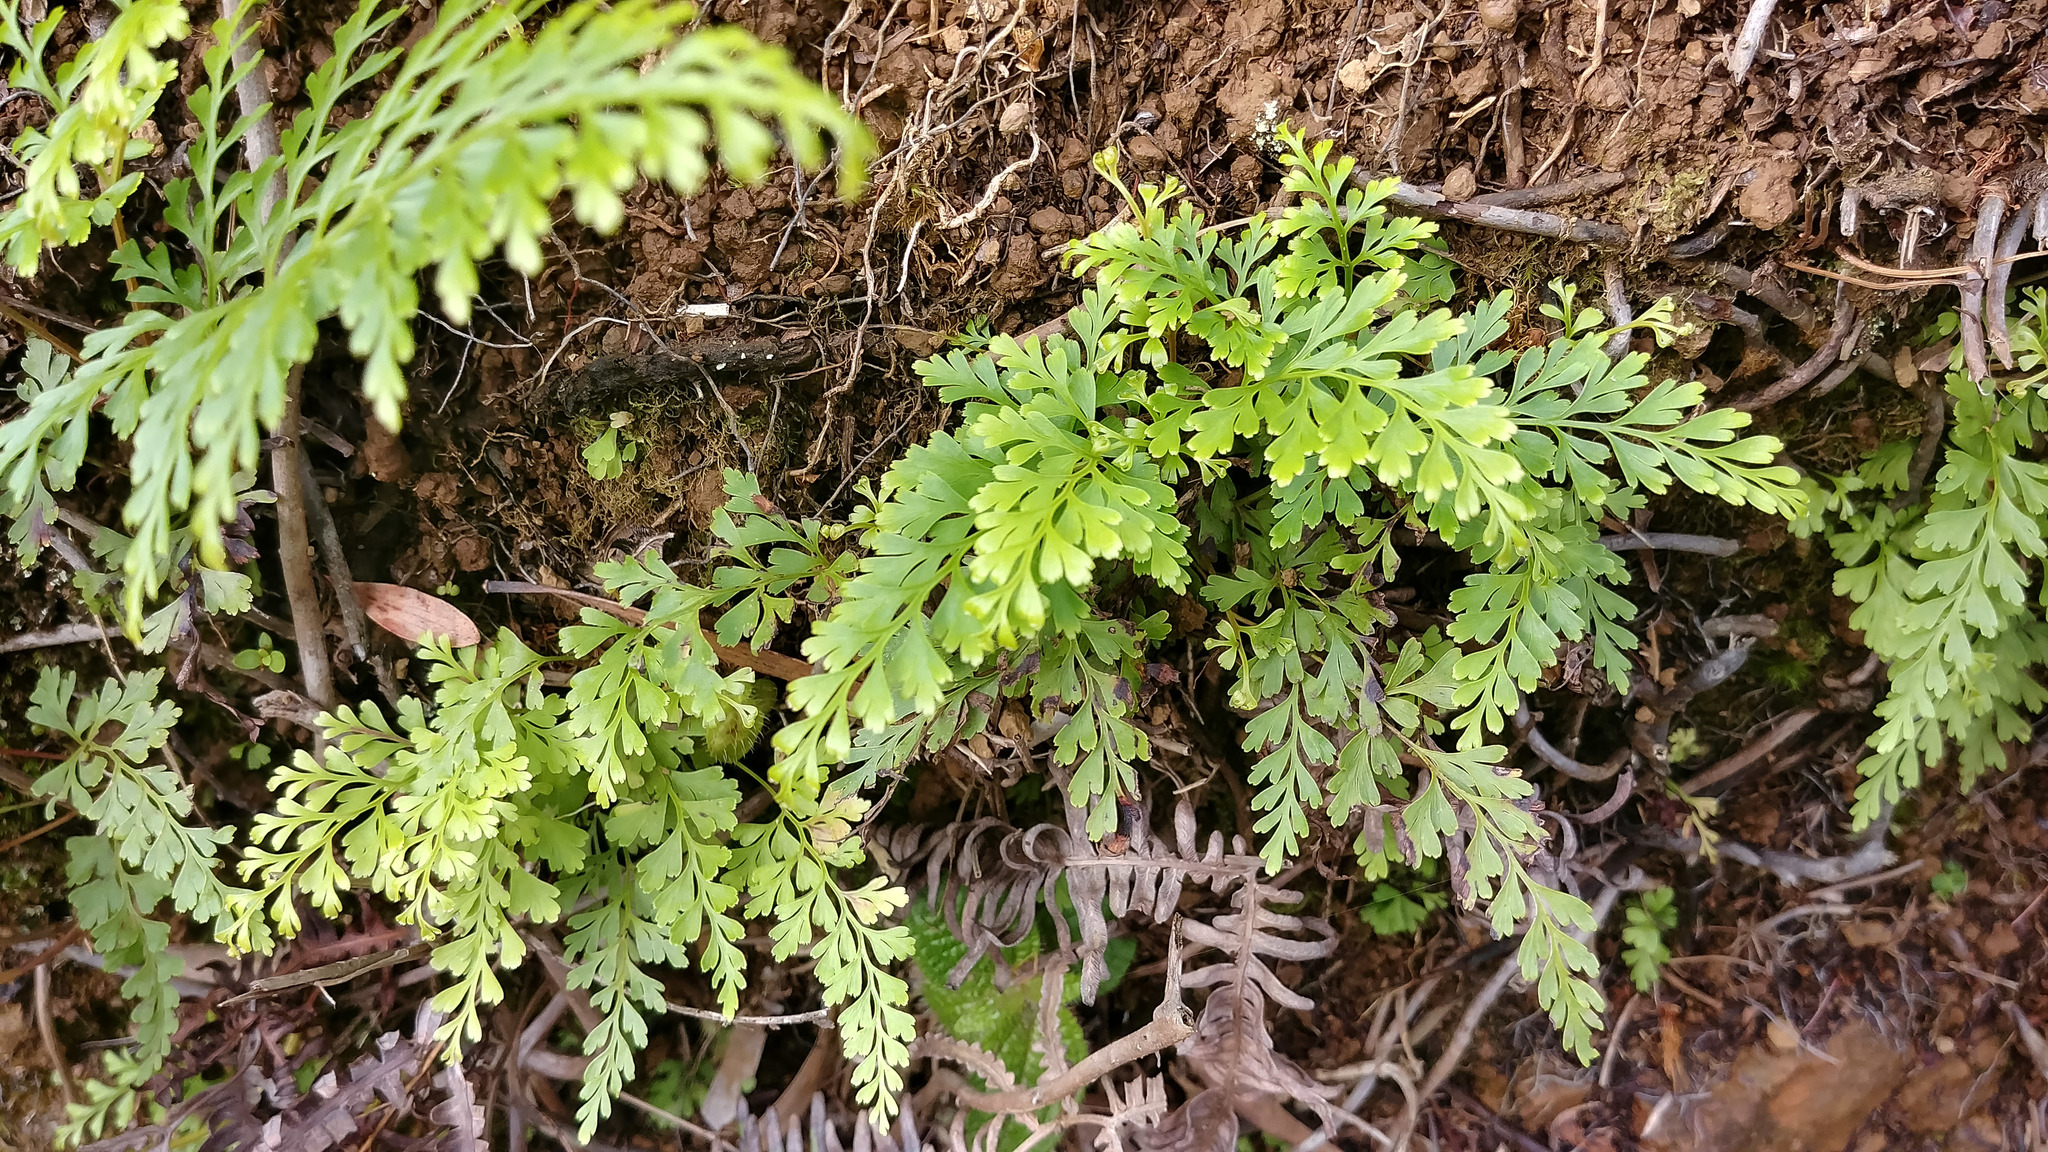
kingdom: Plantae
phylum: Tracheophyta
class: Polypodiopsida
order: Polypodiales
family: Lindsaeaceae
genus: Odontosoria
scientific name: Odontosoria chinensis
